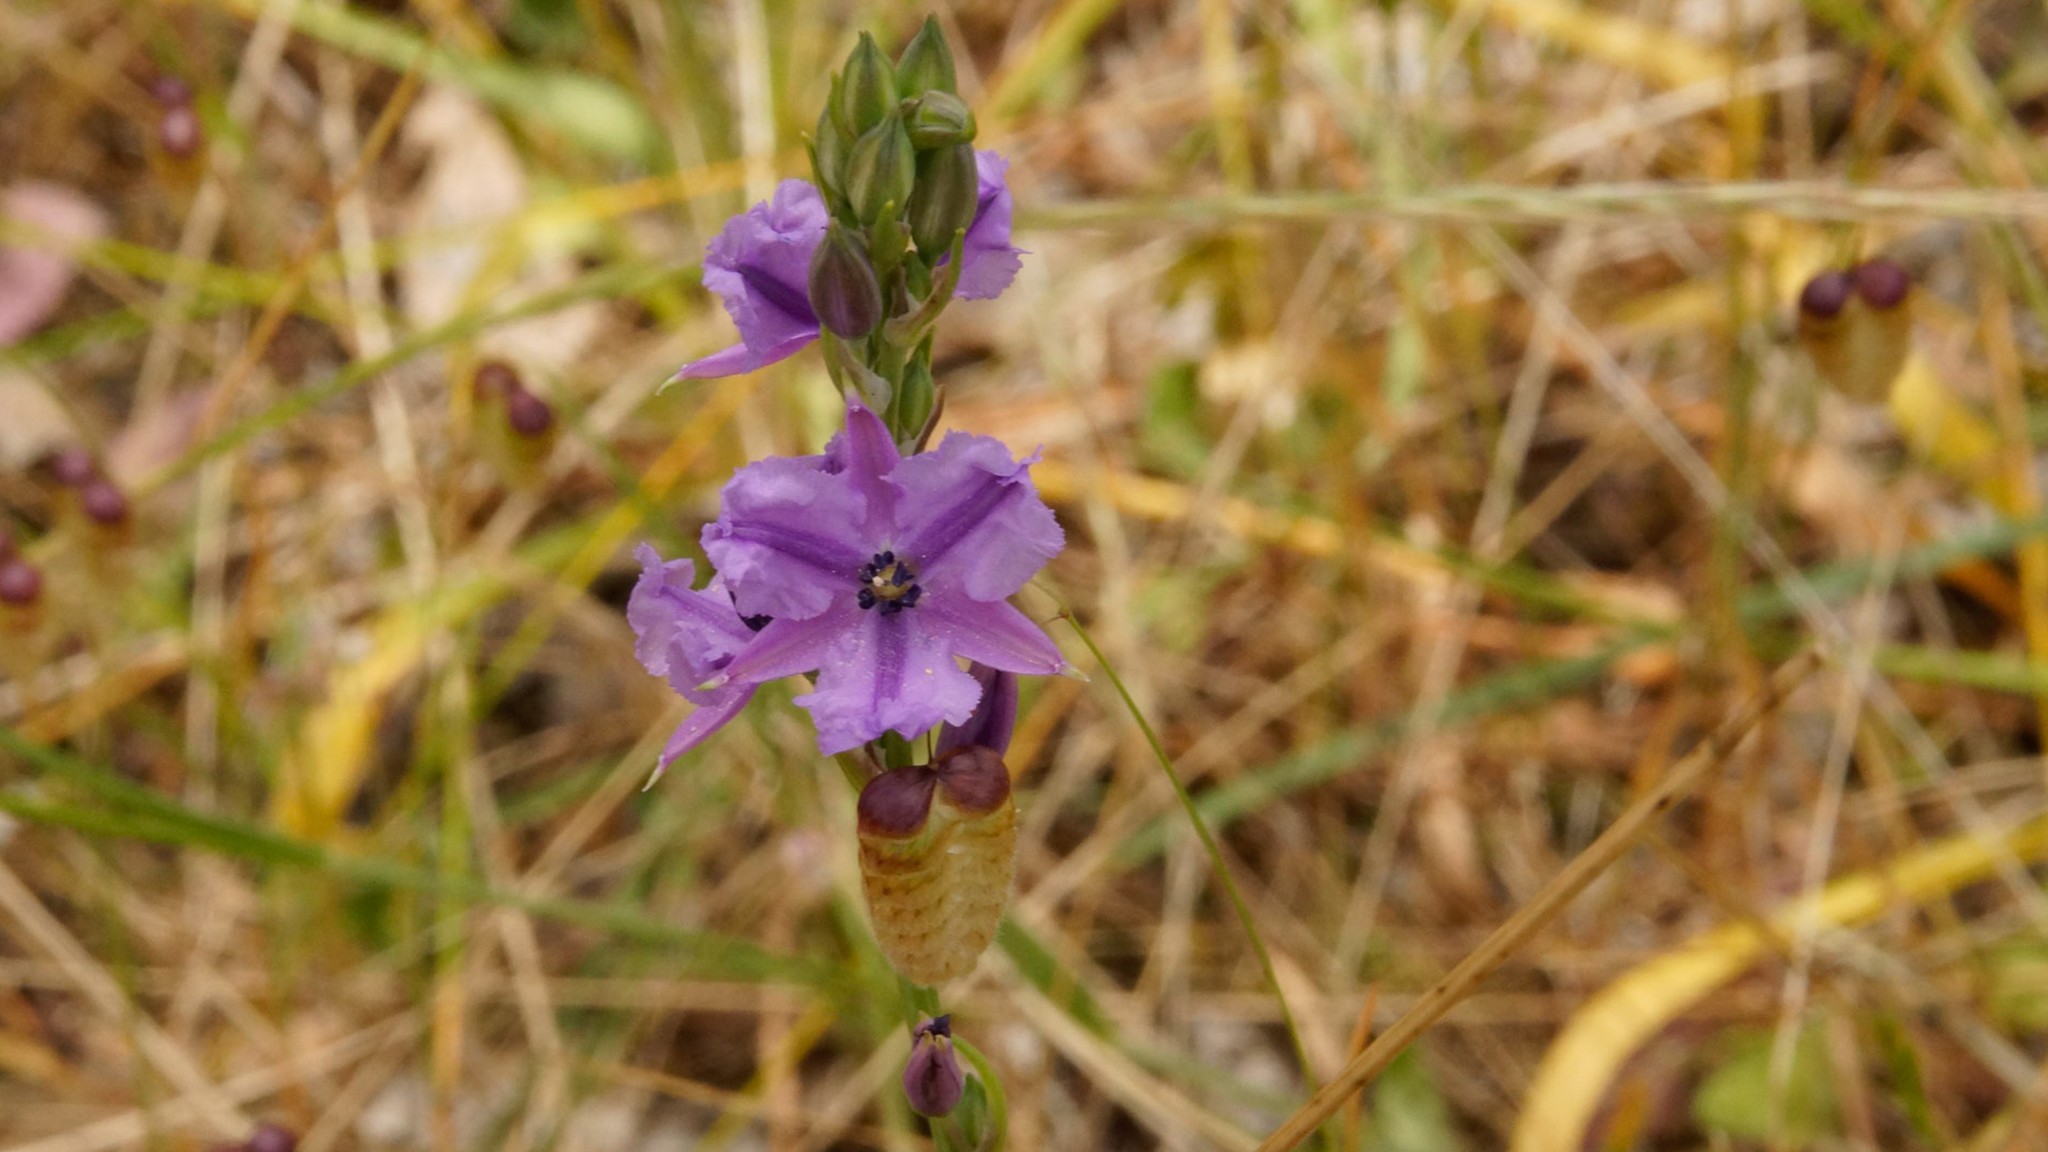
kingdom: Plantae
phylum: Tracheophyta
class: Liliopsida
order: Asparagales
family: Asparagaceae
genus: Arthropodium
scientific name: Arthropodium strictum
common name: Chocolate-lily
